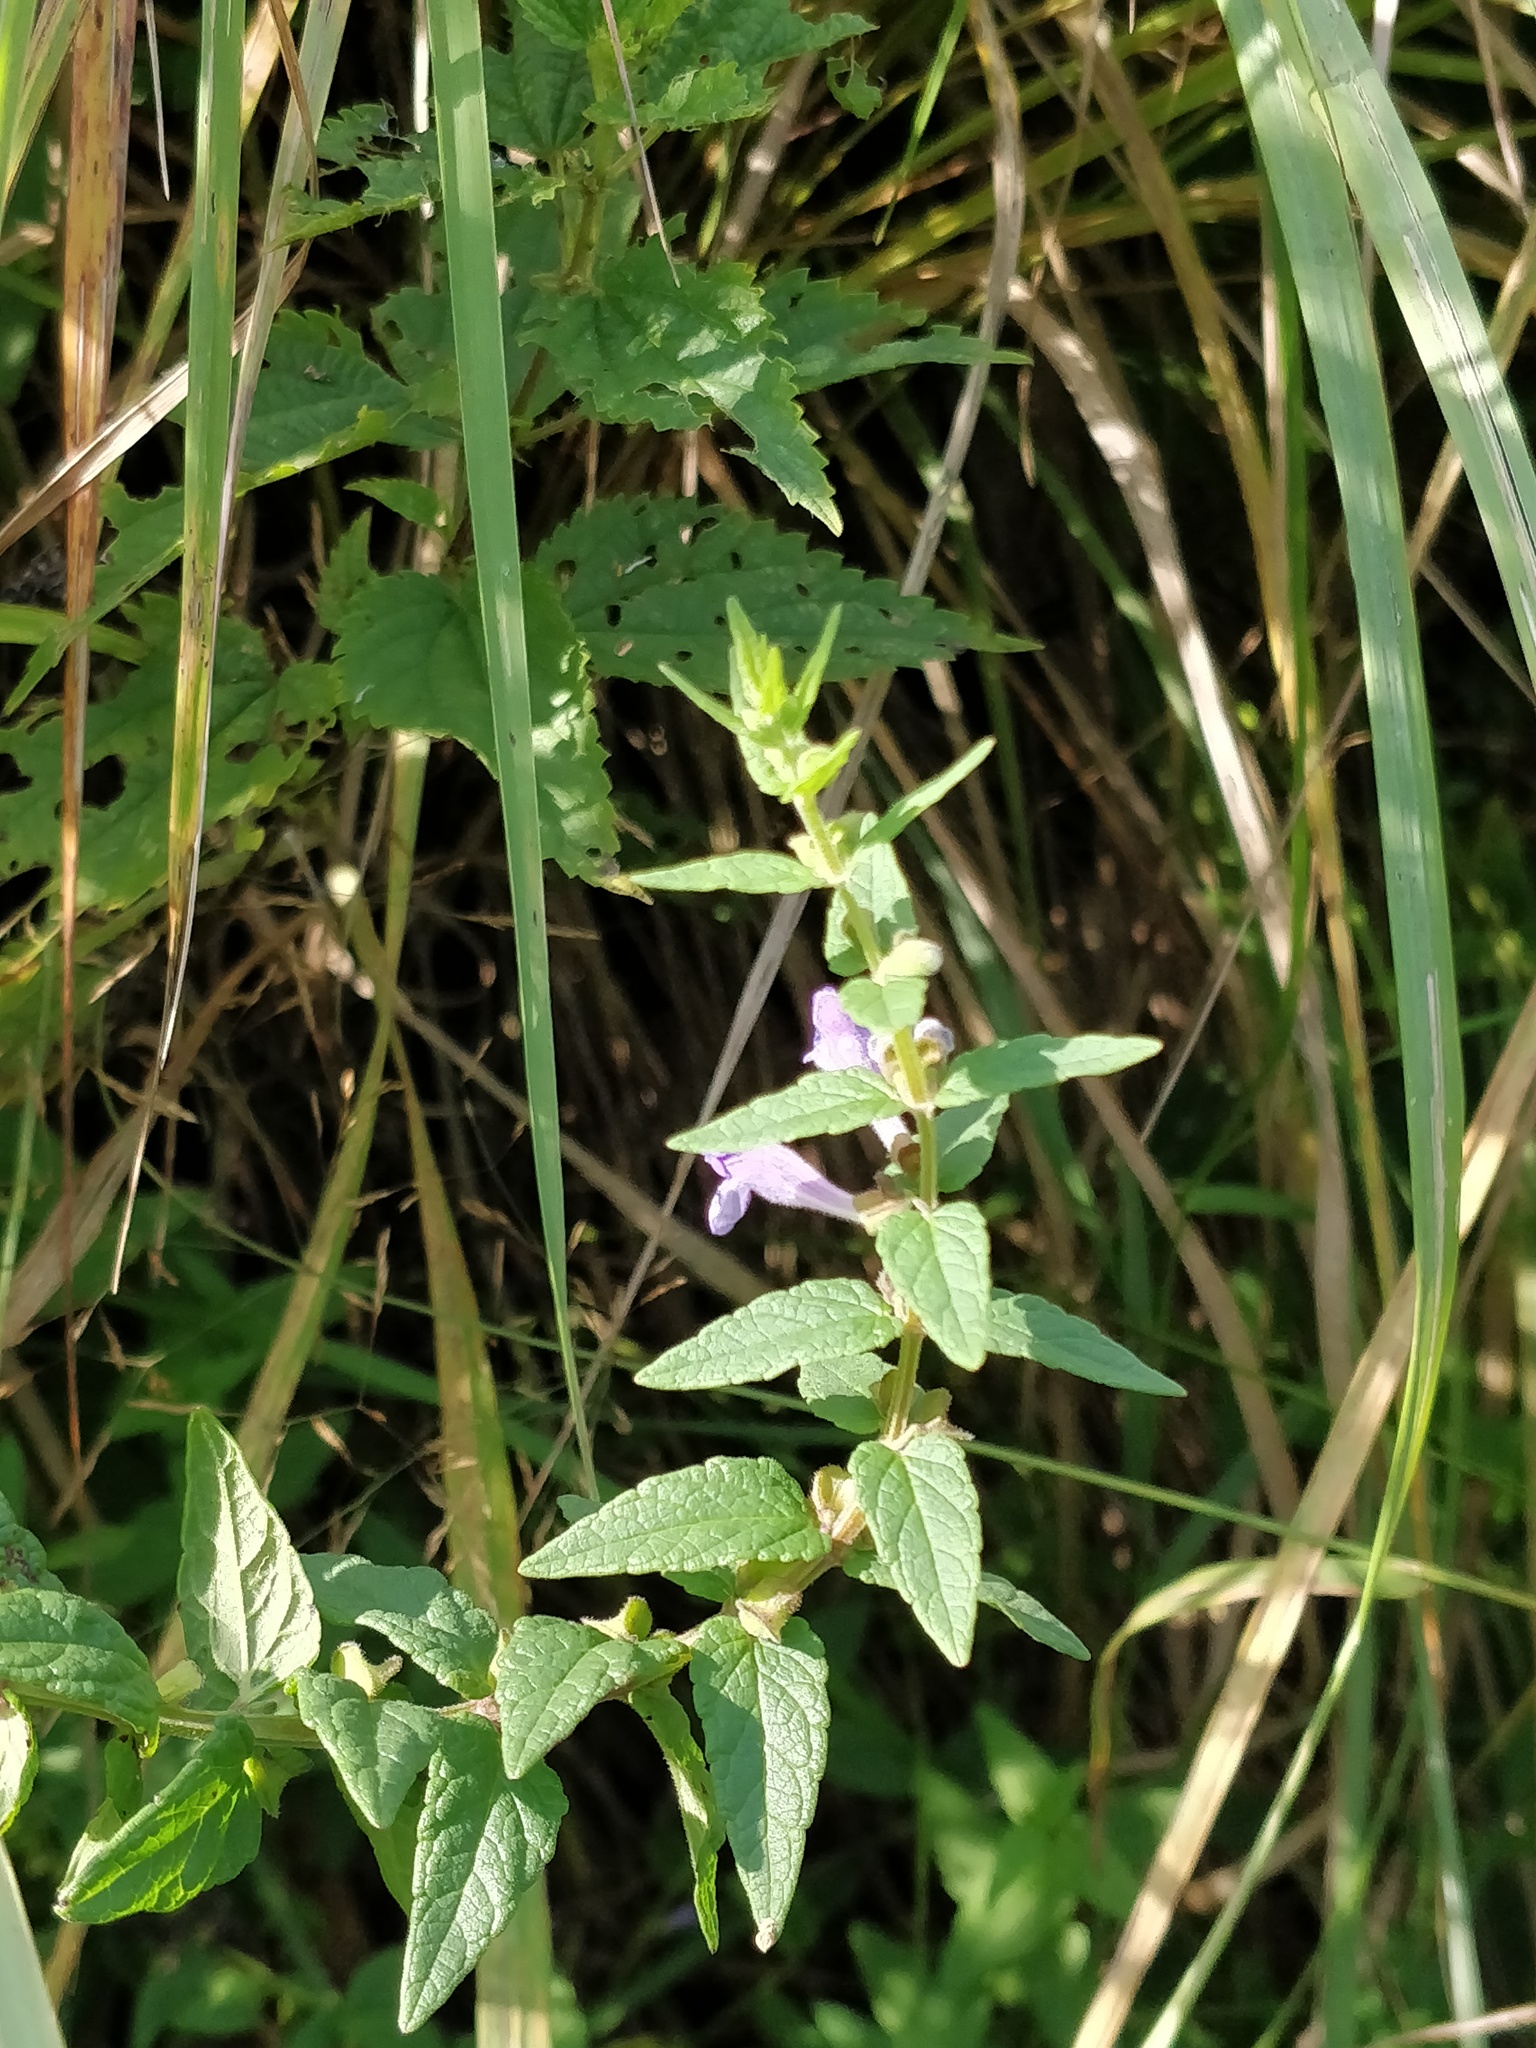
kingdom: Plantae
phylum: Tracheophyta
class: Magnoliopsida
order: Lamiales
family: Lamiaceae
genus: Scutellaria
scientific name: Scutellaria galericulata
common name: Skullcap
